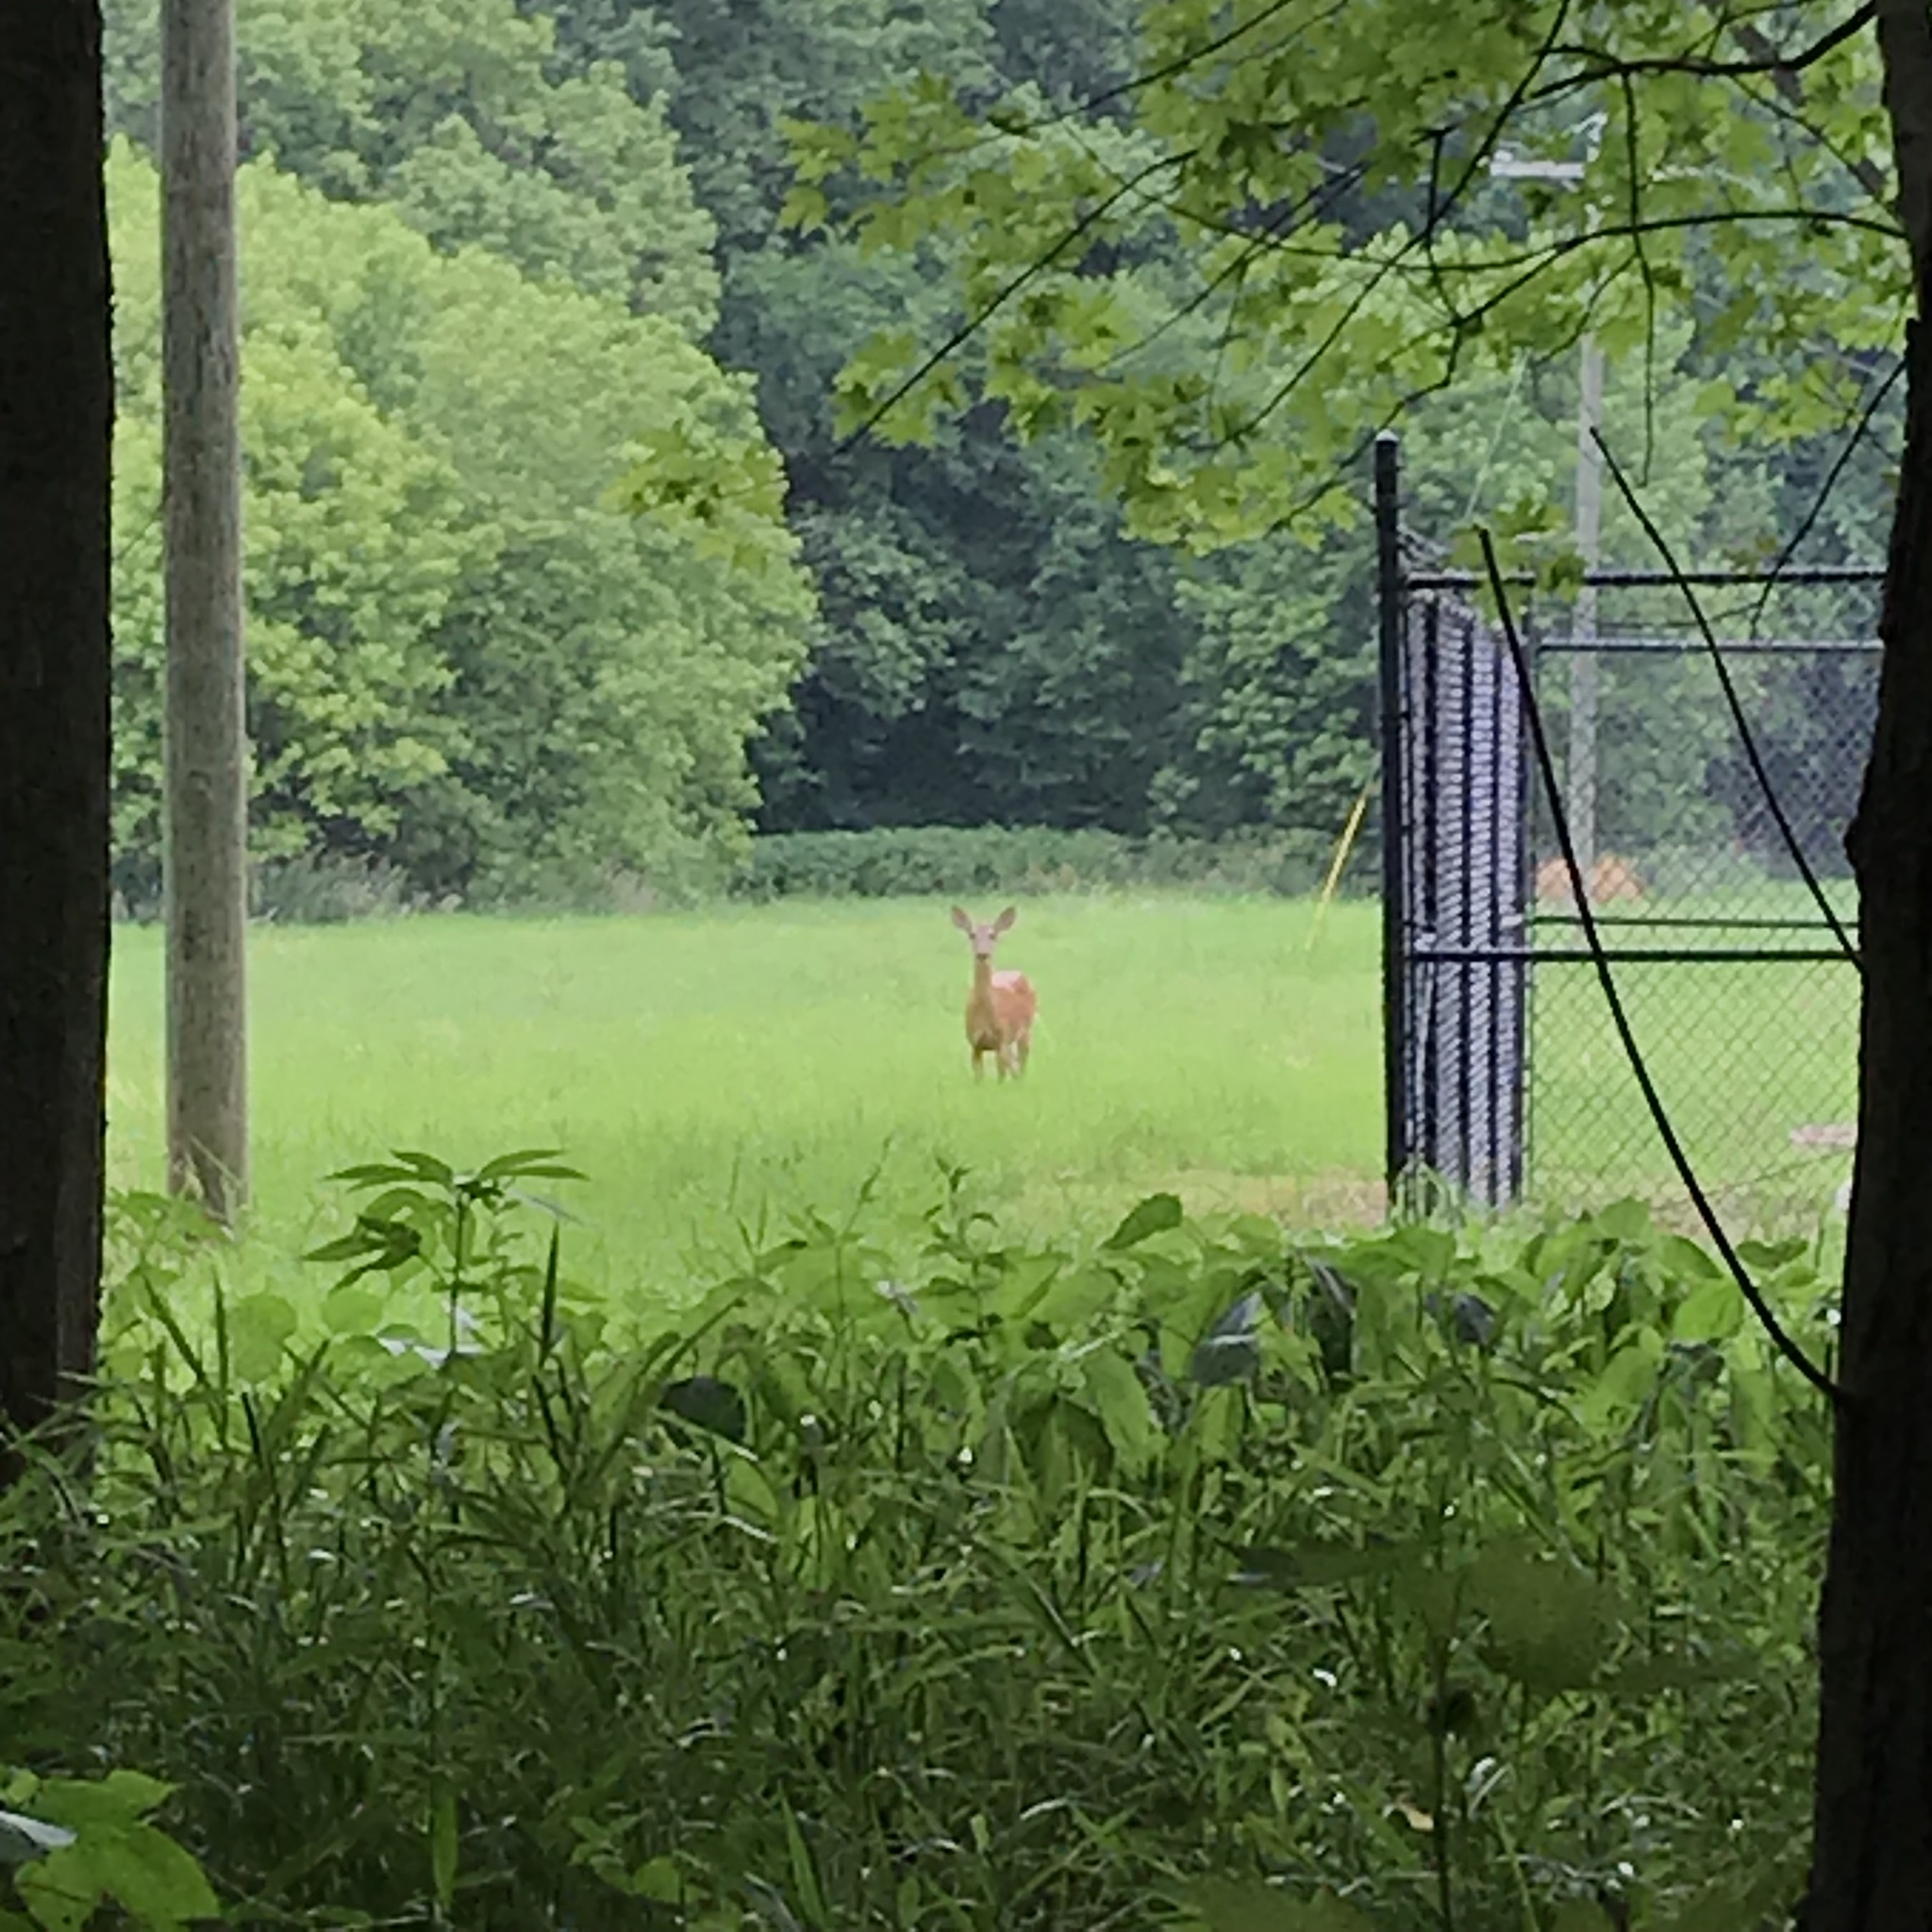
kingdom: Animalia
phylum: Chordata
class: Mammalia
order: Artiodactyla
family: Cervidae
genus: Odocoileus
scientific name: Odocoileus virginianus
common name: White-tailed deer
